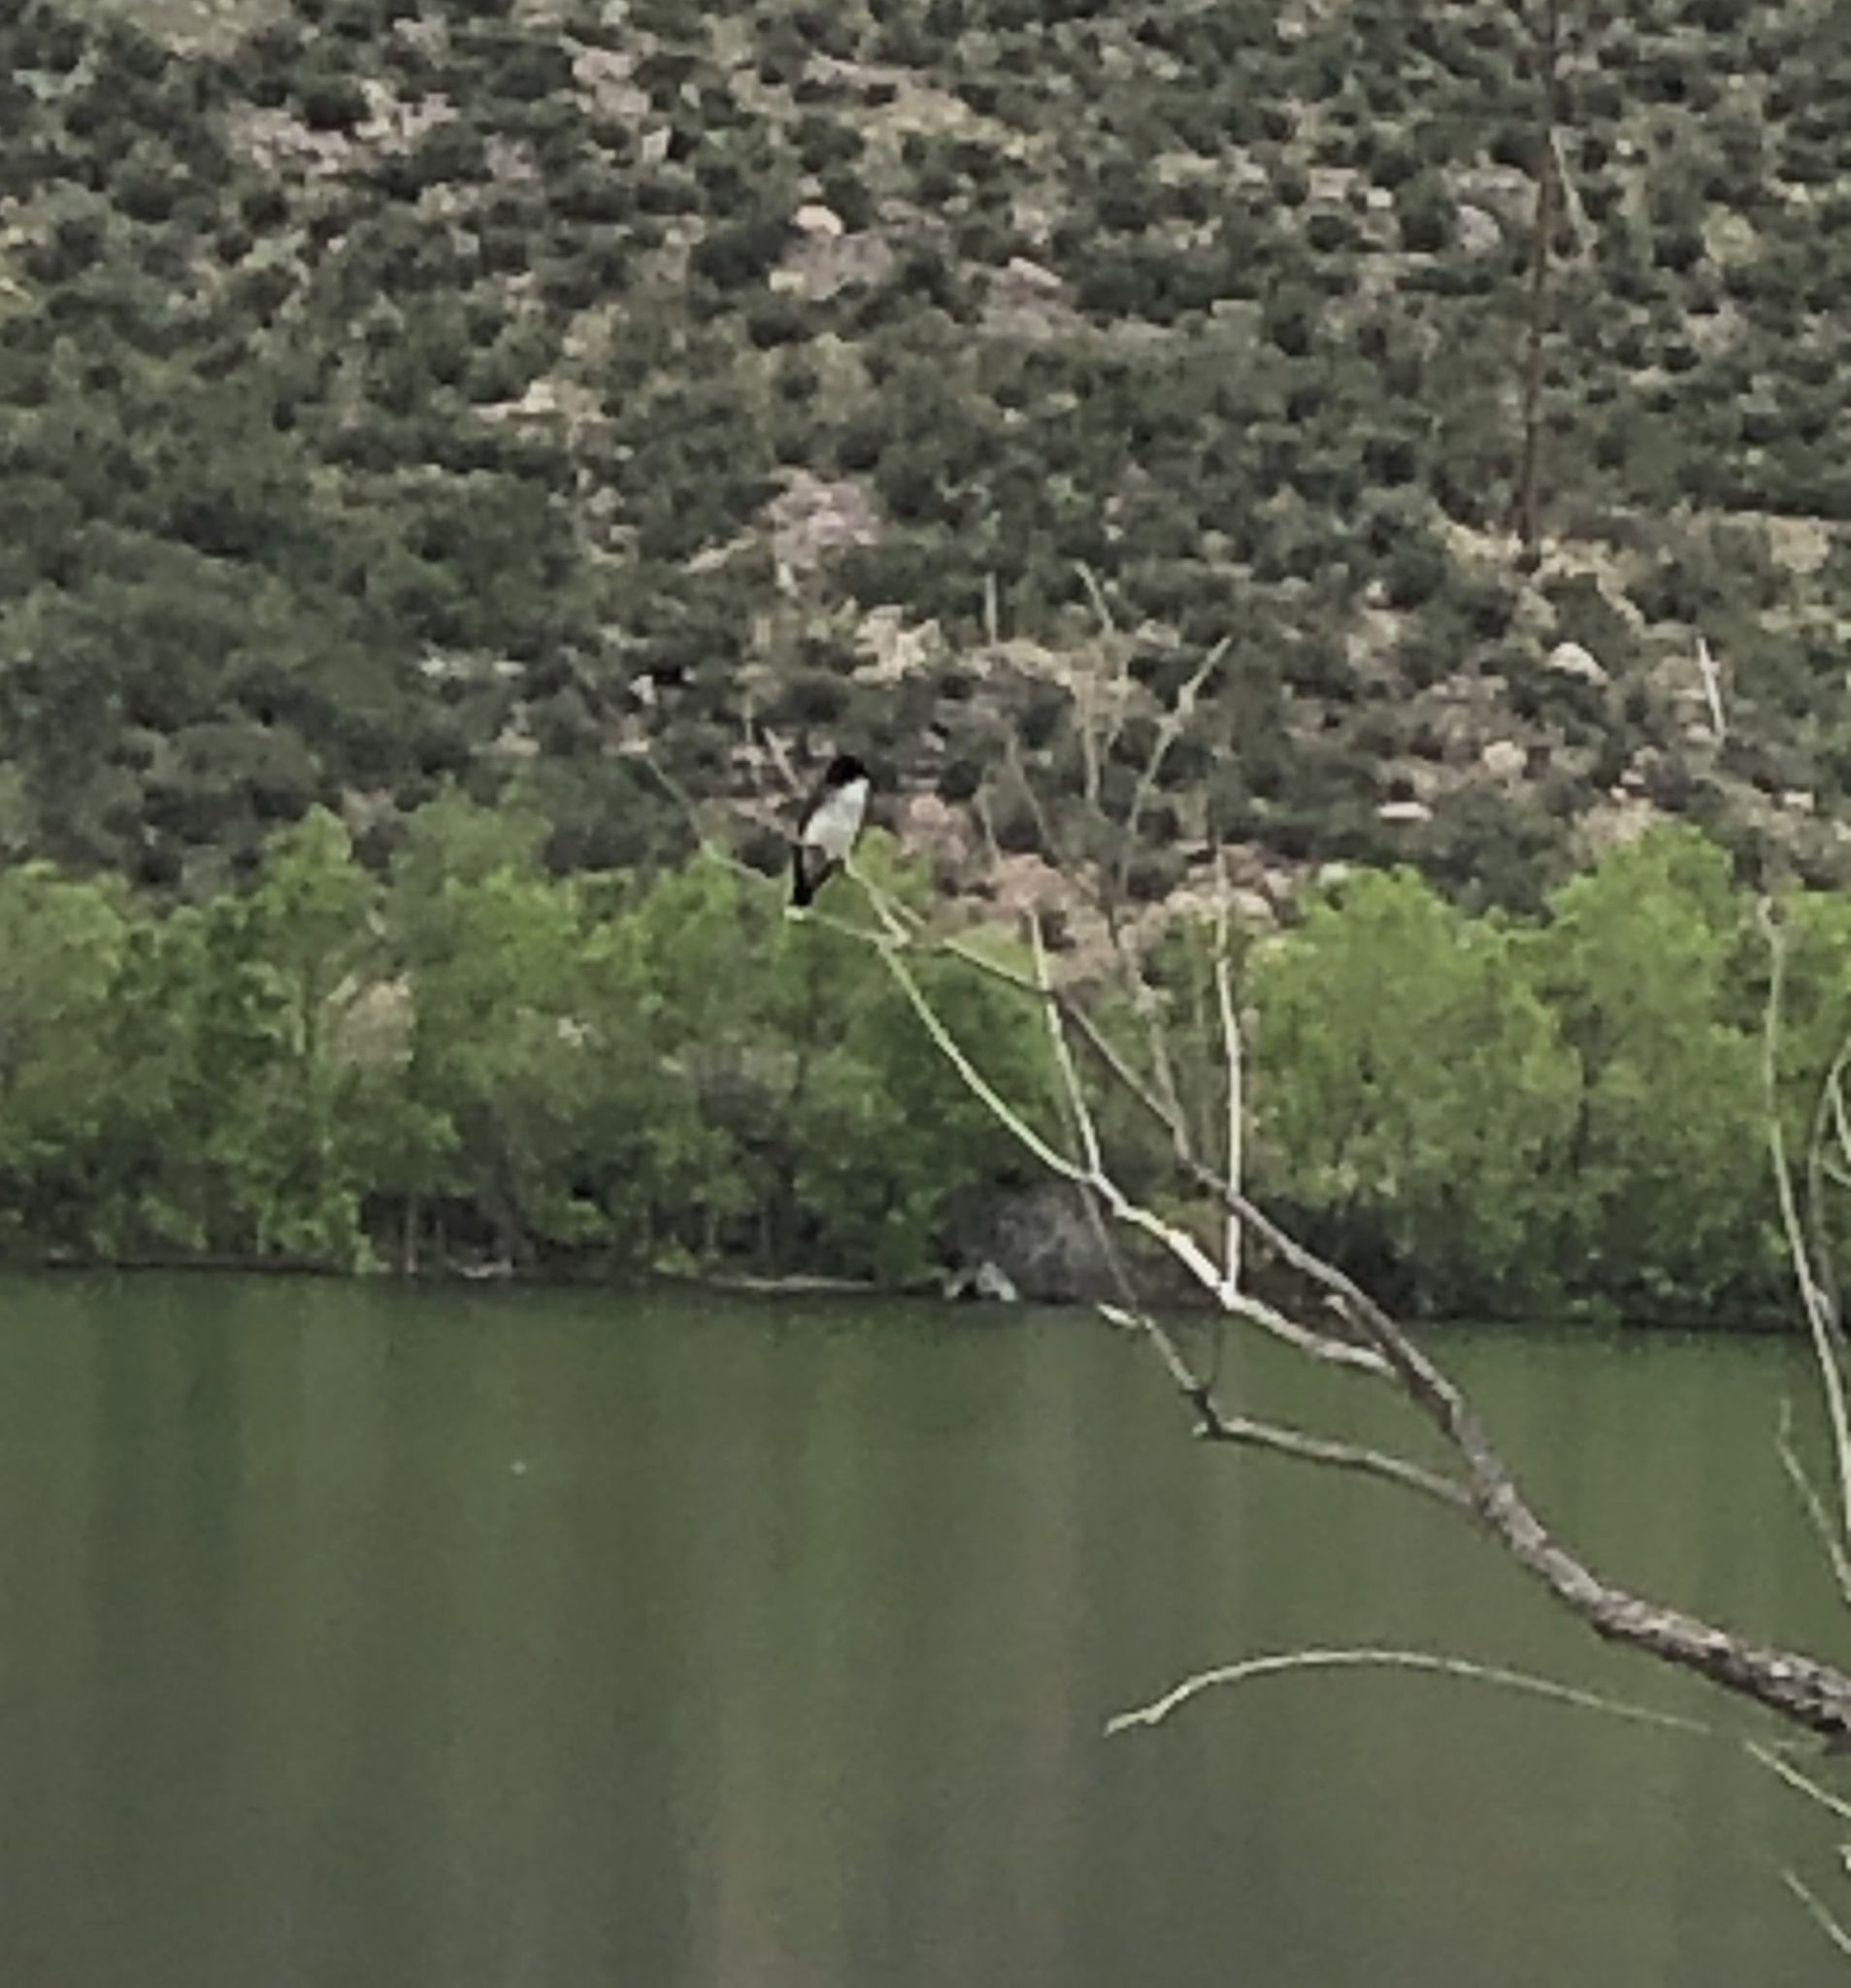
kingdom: Animalia
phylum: Chordata
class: Aves
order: Passeriformes
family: Tyrannidae
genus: Tyrannus
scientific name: Tyrannus tyrannus
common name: Eastern kingbird
